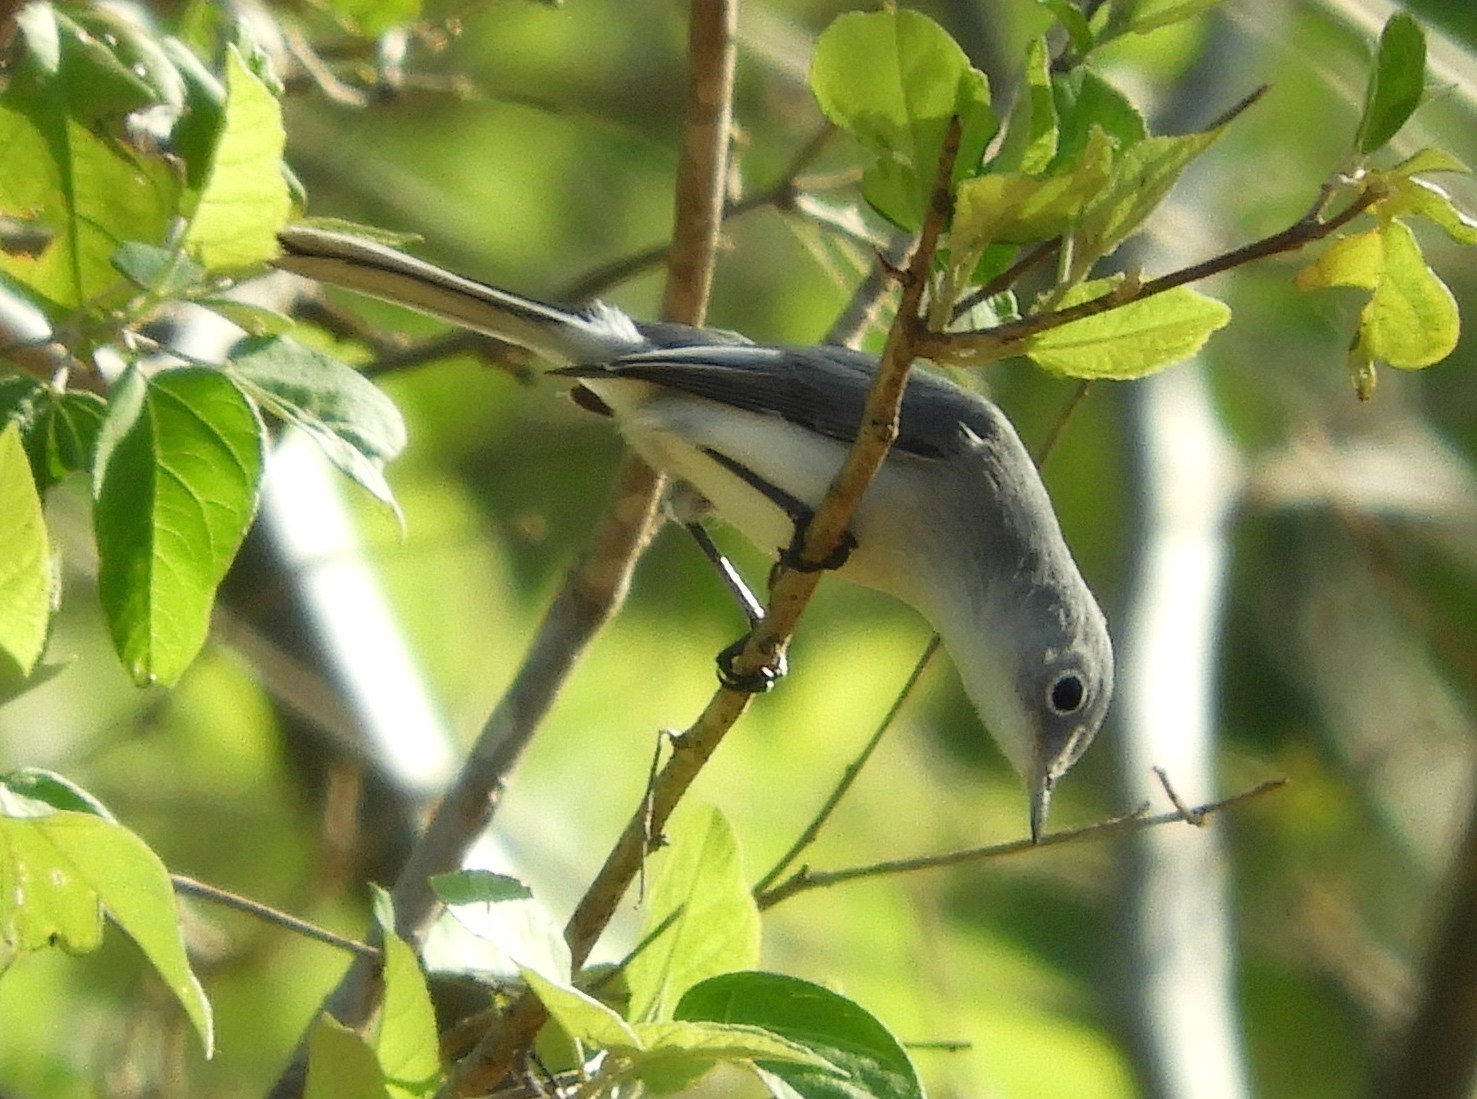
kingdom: Animalia
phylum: Chordata
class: Aves
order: Passeriformes
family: Polioptilidae
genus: Polioptila
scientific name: Polioptila caerulea
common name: Blue-gray gnatcatcher
